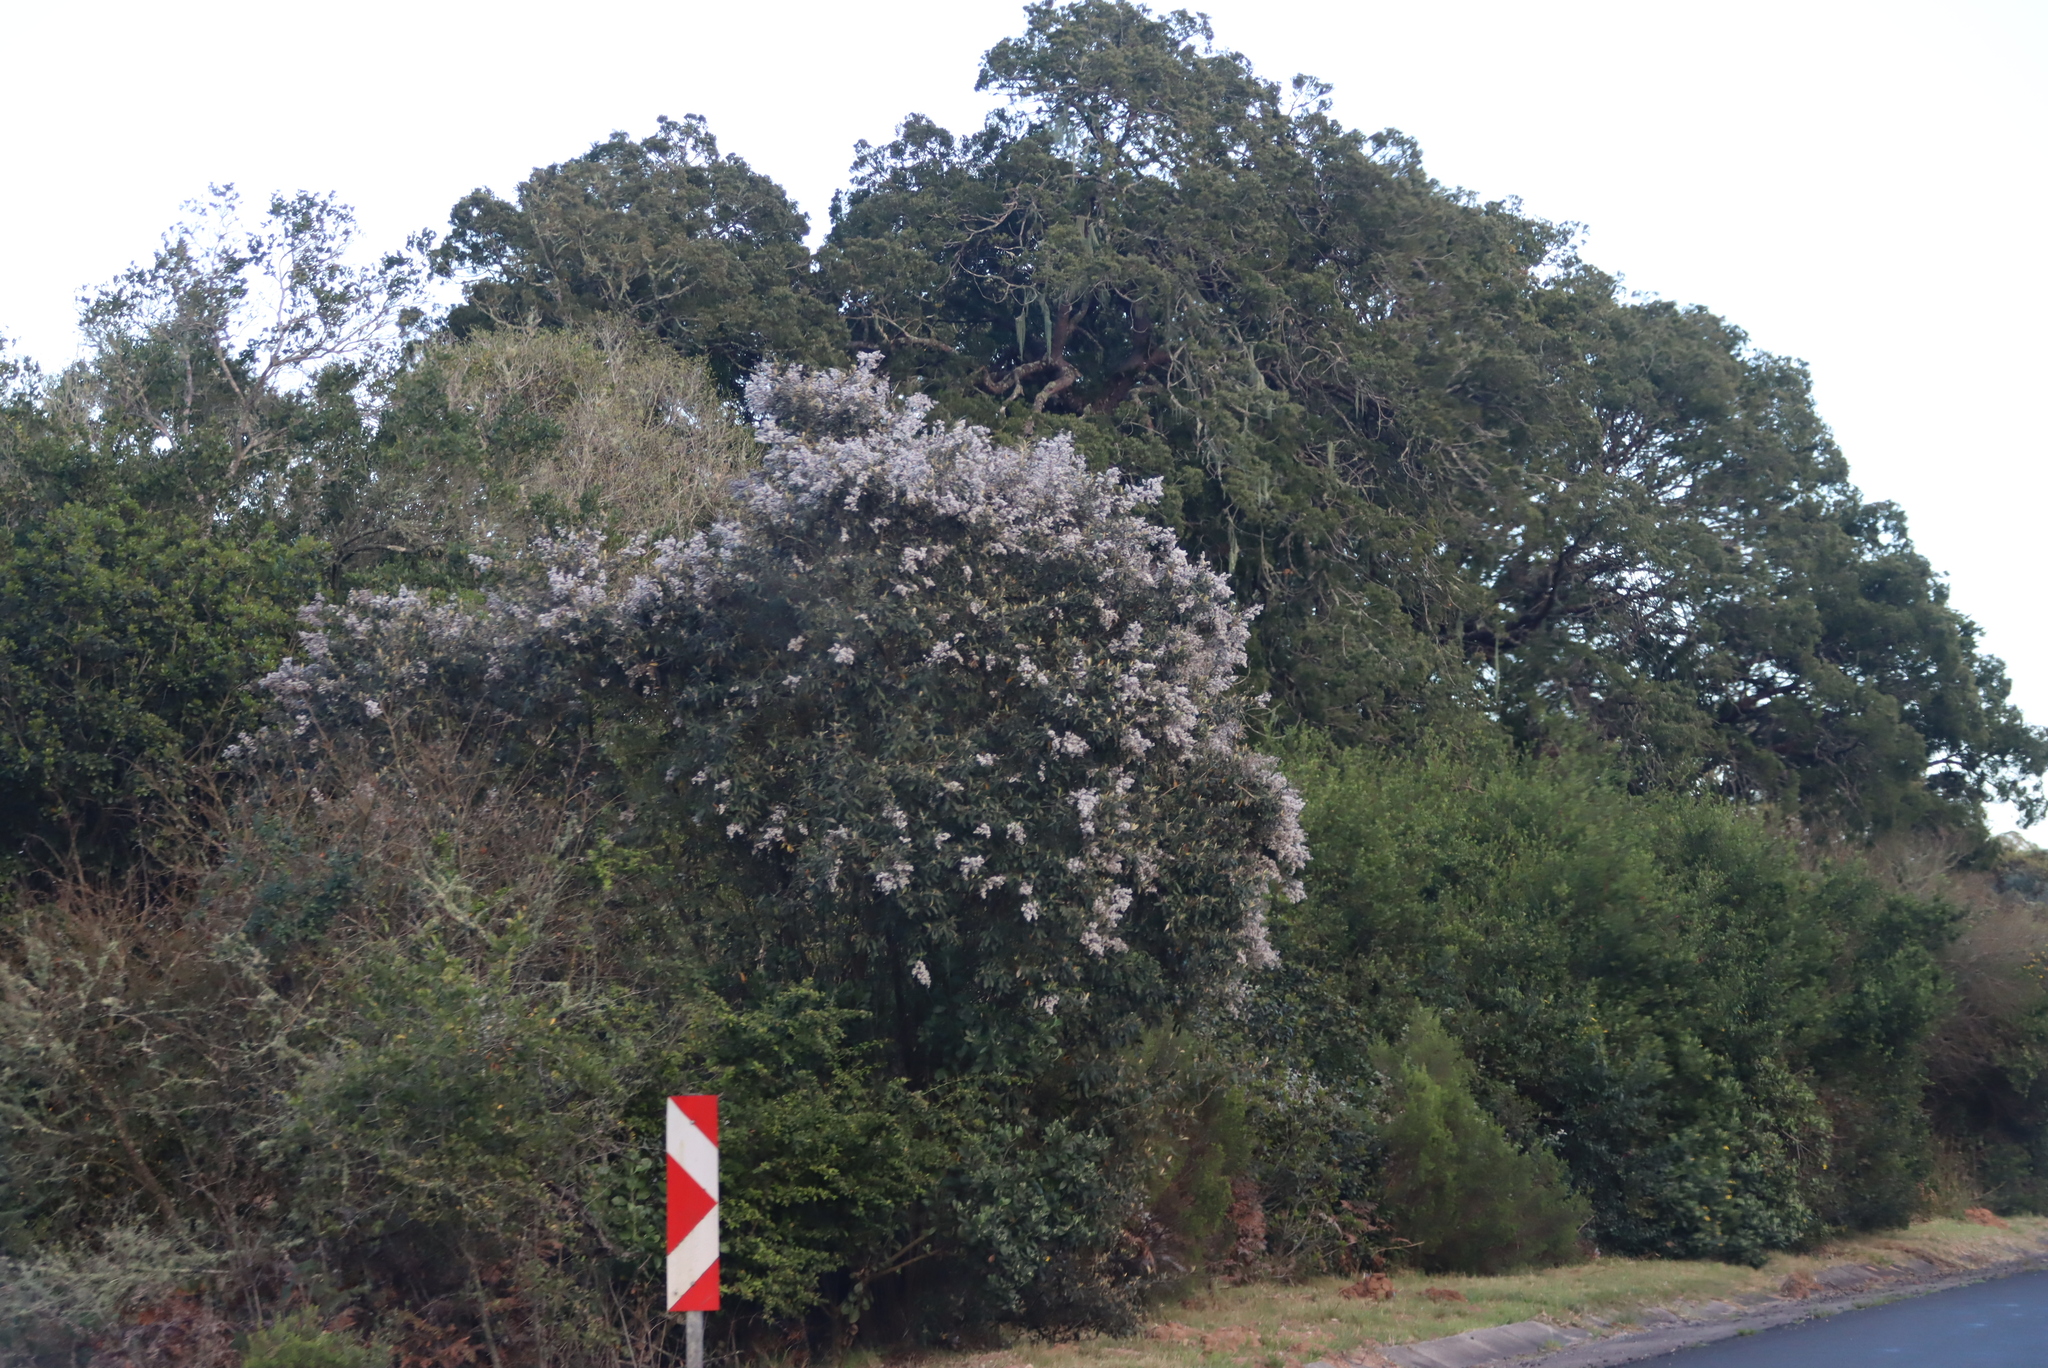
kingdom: Plantae
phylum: Tracheophyta
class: Magnoliopsida
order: Asterales
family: Asteraceae
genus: Tarchonanthus
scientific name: Tarchonanthus littoralis
